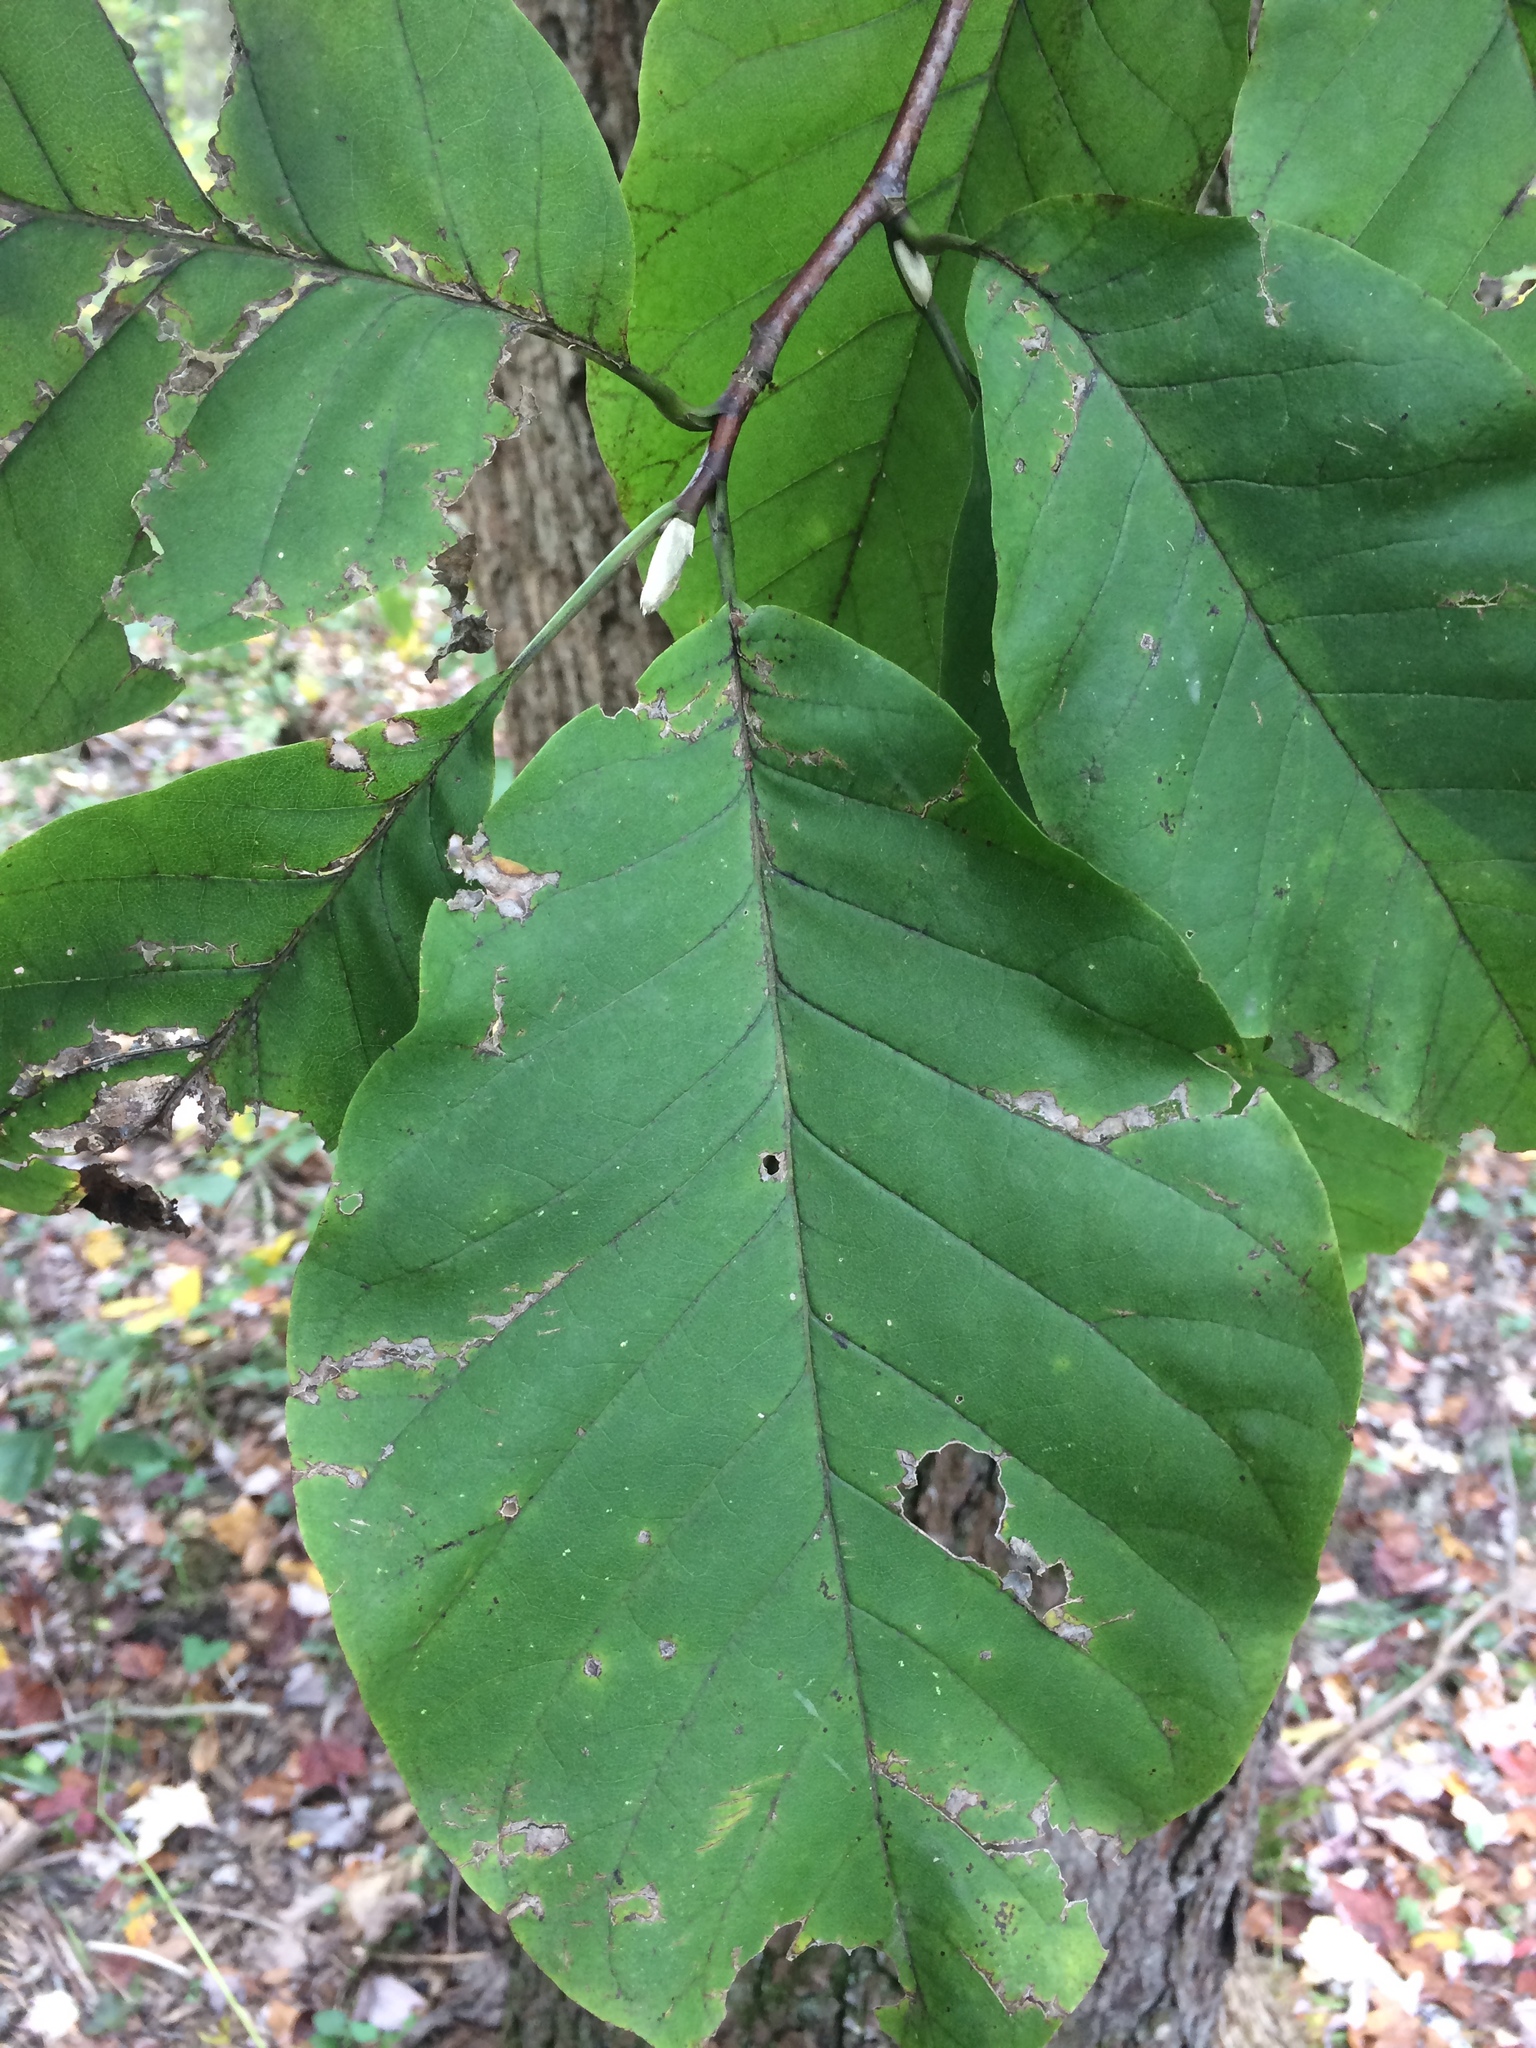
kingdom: Plantae
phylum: Tracheophyta
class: Magnoliopsida
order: Magnoliales
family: Magnoliaceae
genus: Magnolia
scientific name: Magnolia acuminata
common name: Cucumber magnolia
